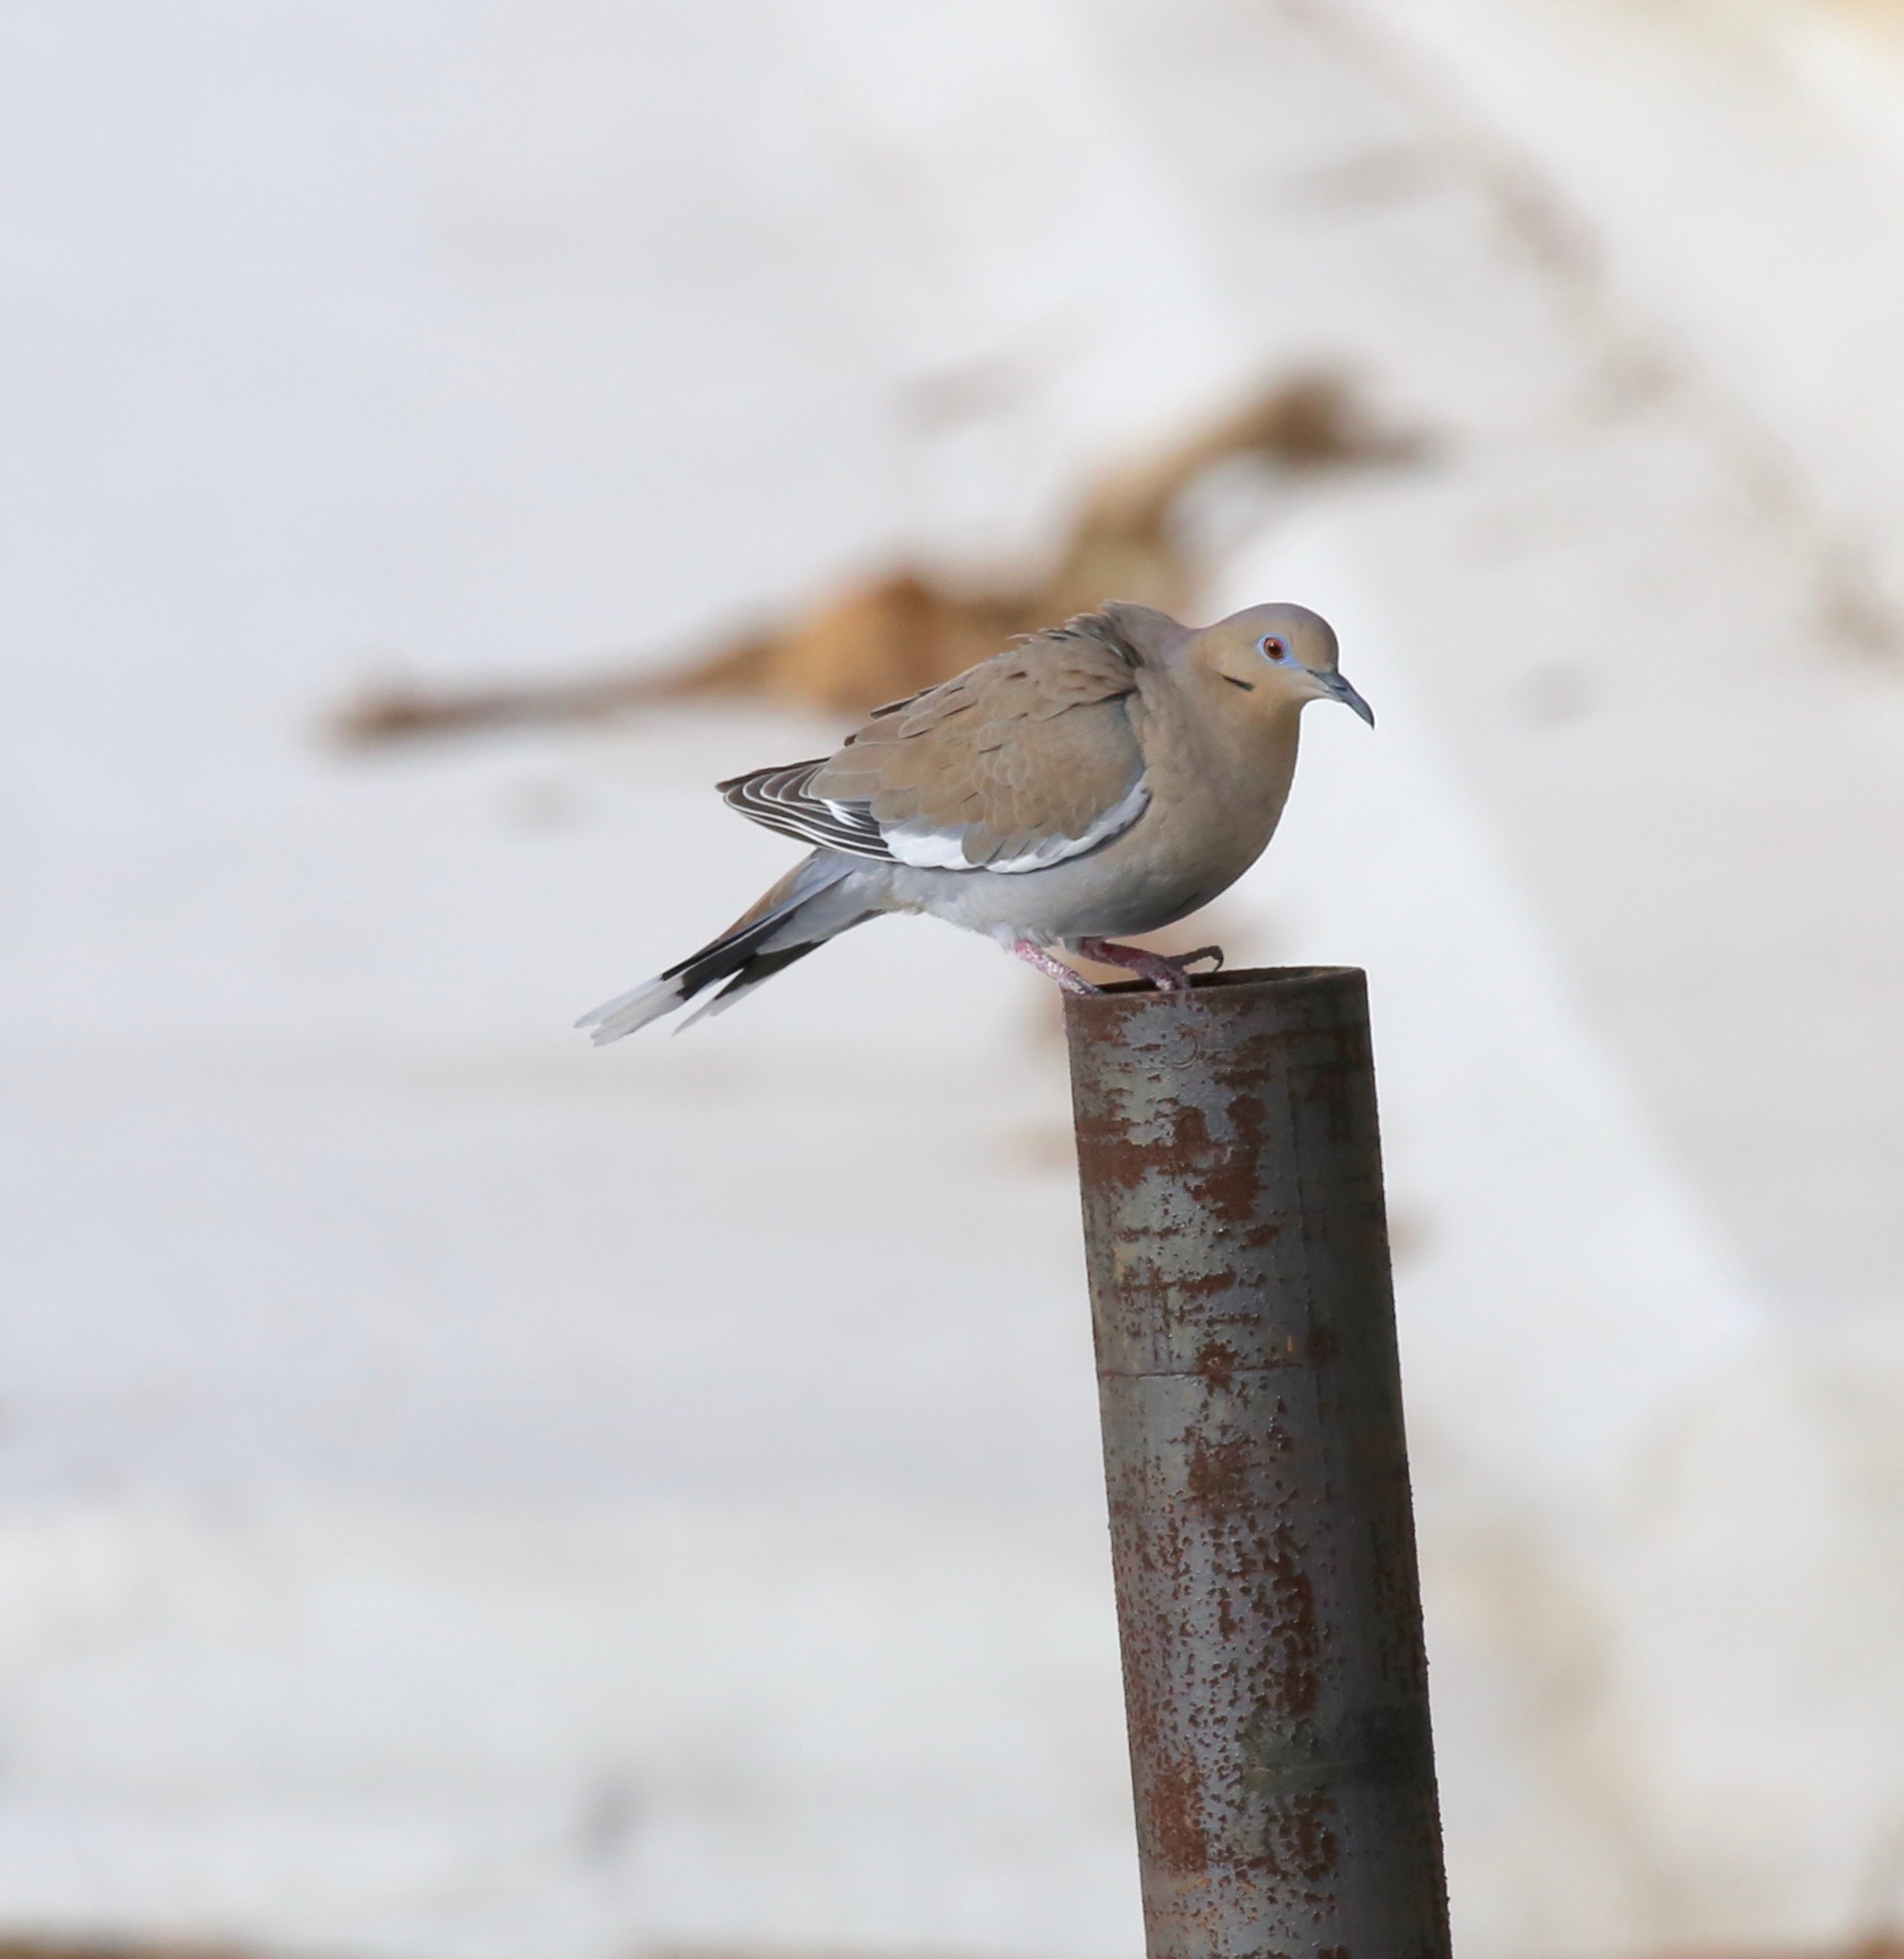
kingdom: Animalia
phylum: Chordata
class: Aves
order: Columbiformes
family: Columbidae
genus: Zenaida
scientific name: Zenaida asiatica
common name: White-winged dove
